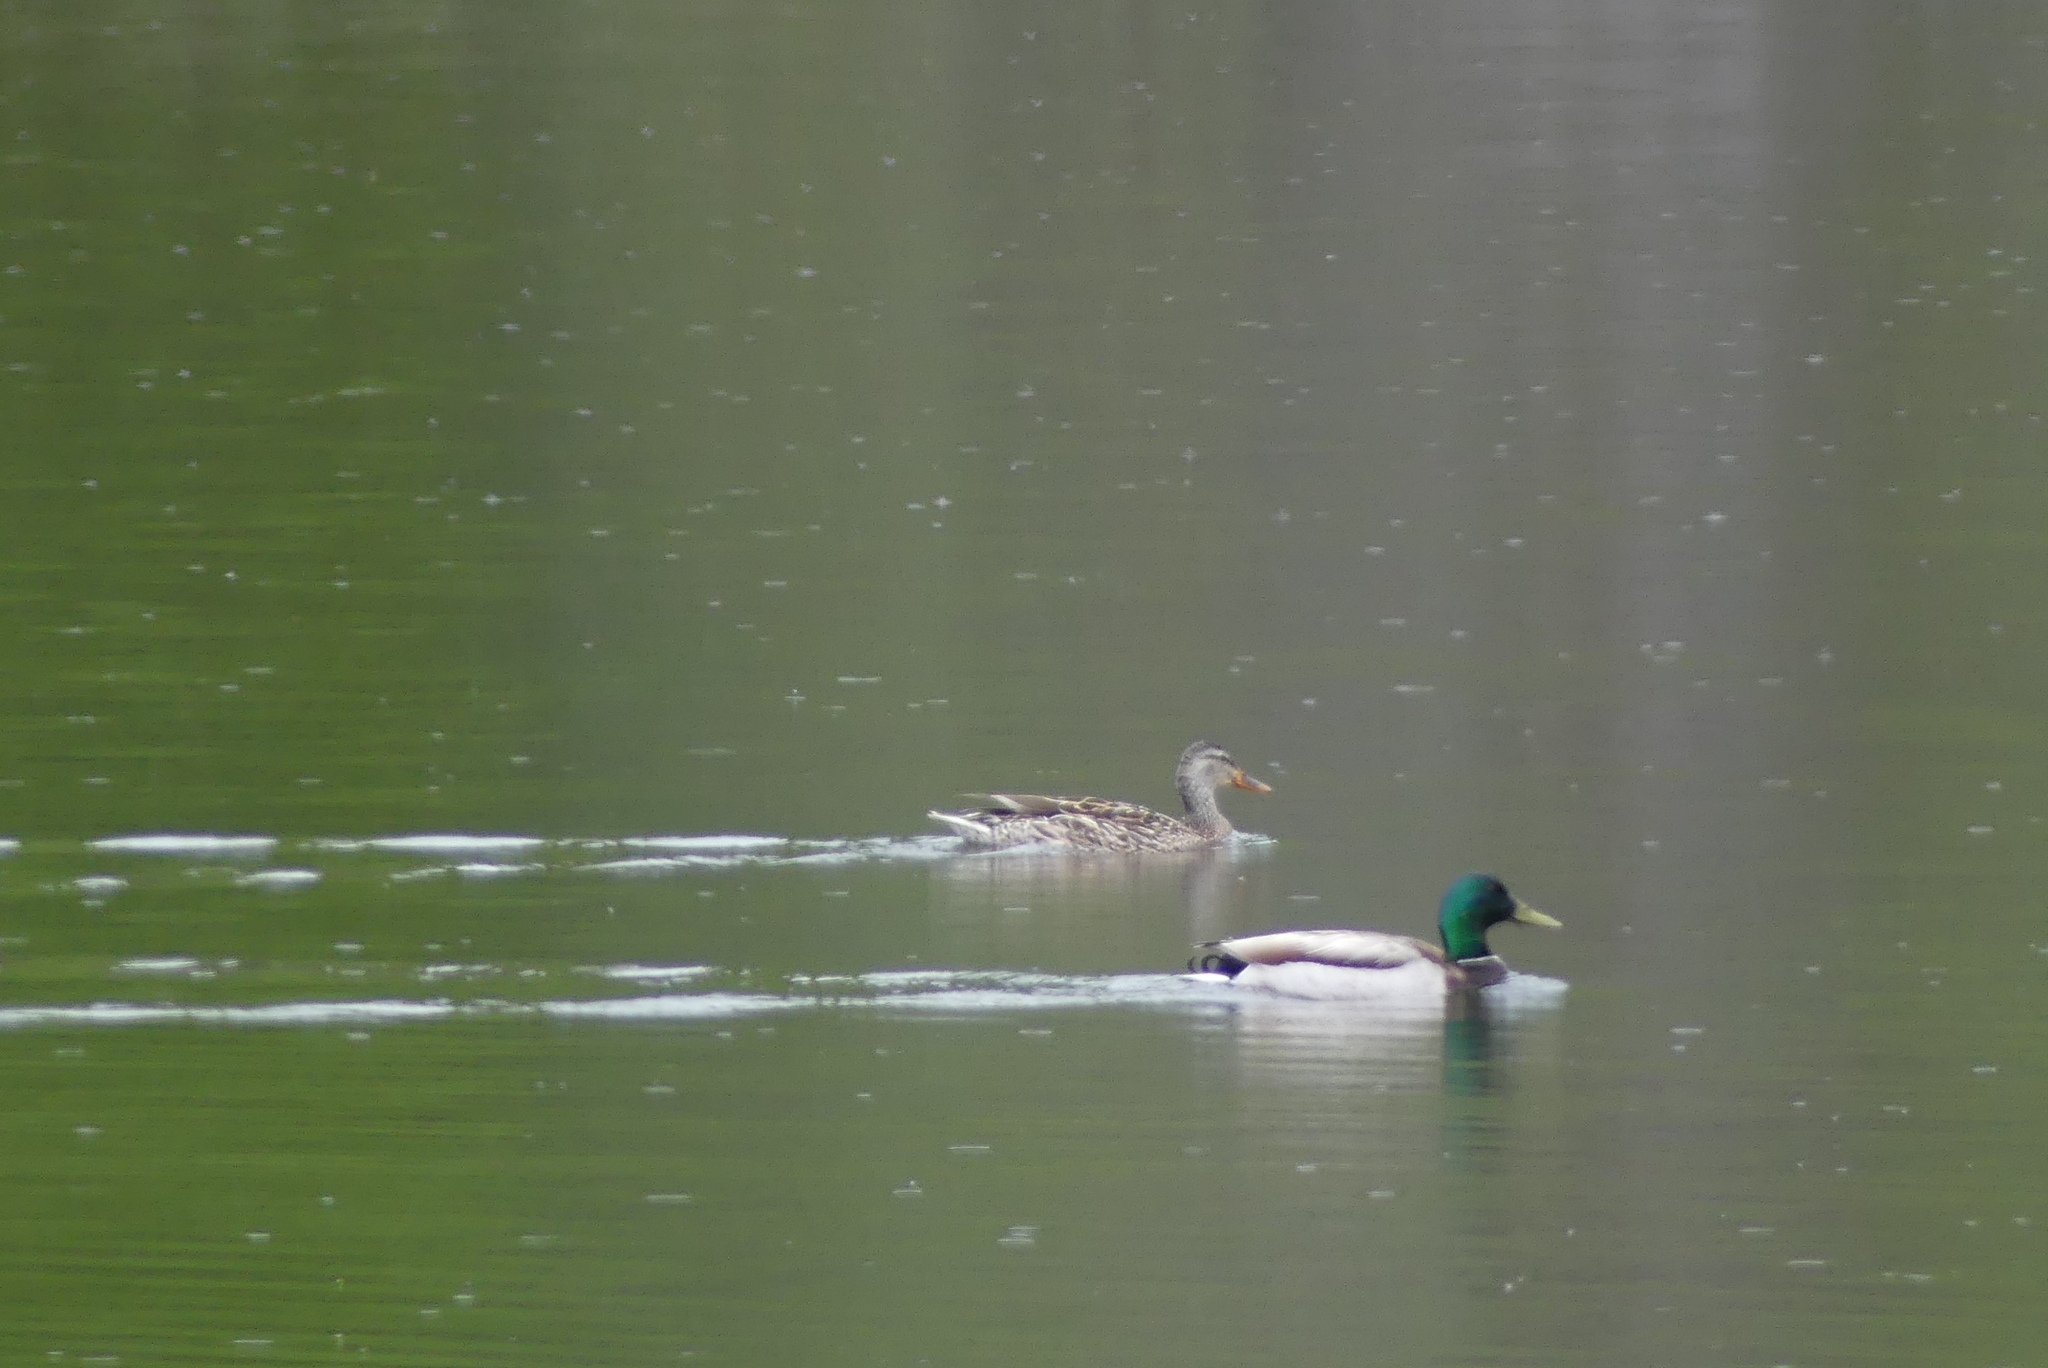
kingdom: Animalia
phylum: Chordata
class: Aves
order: Anseriformes
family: Anatidae
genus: Anas
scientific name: Anas platyrhynchos
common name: Mallard
